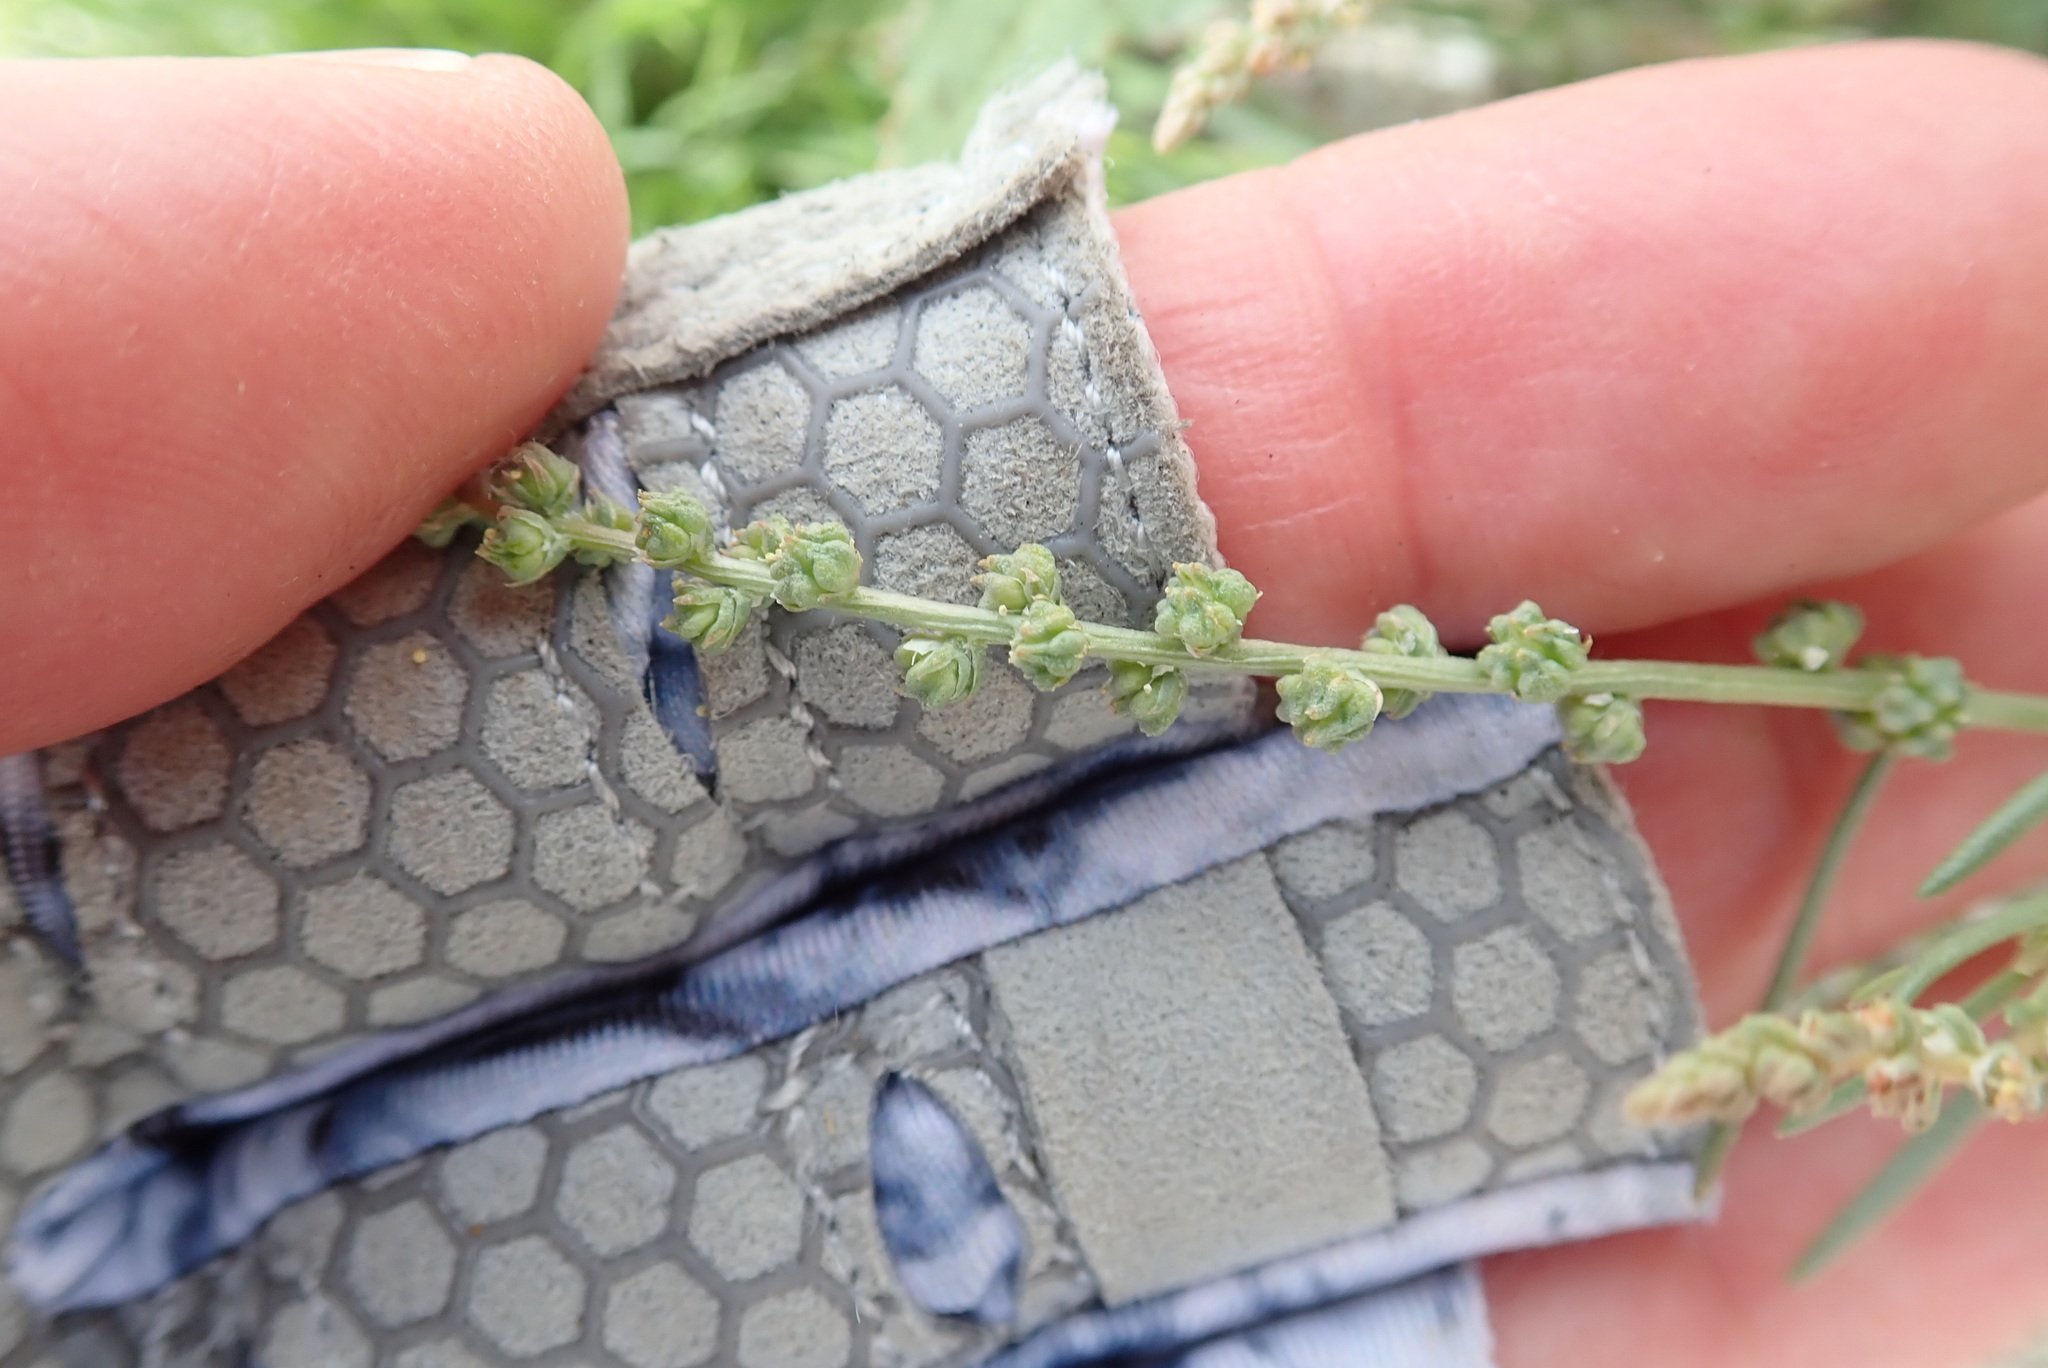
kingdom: Plantae
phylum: Tracheophyta
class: Magnoliopsida
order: Brassicales
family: Resedaceae
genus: Oligomeris
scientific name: Oligomeris linifolia
